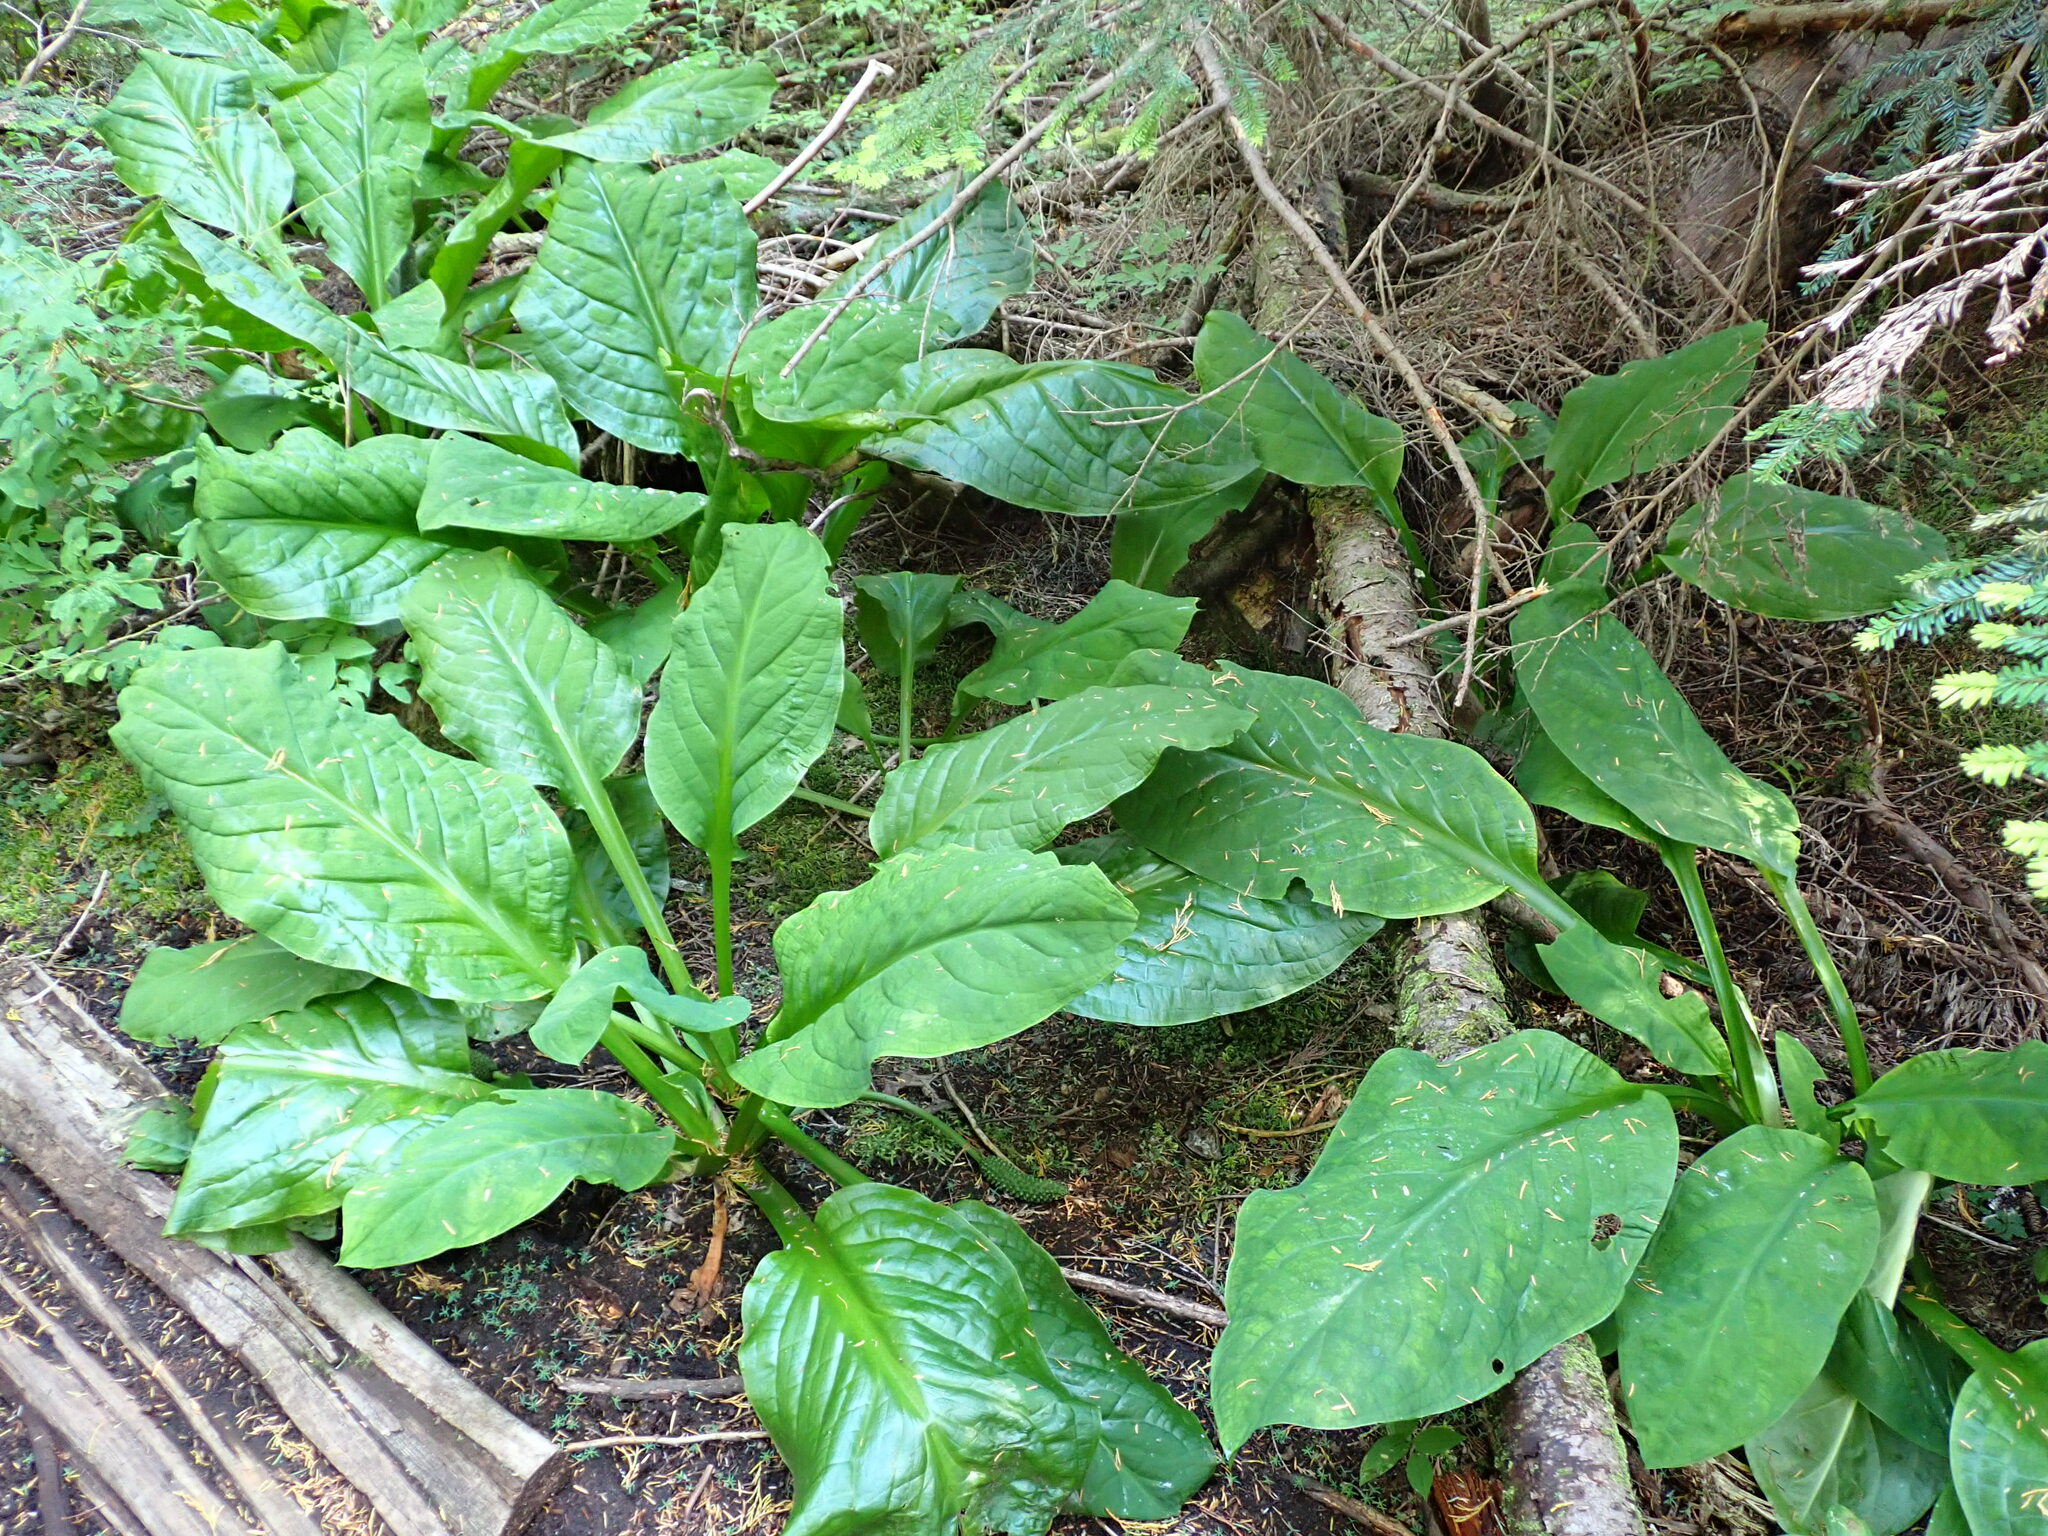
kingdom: Plantae
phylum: Tracheophyta
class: Liliopsida
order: Alismatales
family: Araceae
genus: Lysichiton
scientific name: Lysichiton americanus
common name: American skunk cabbage
